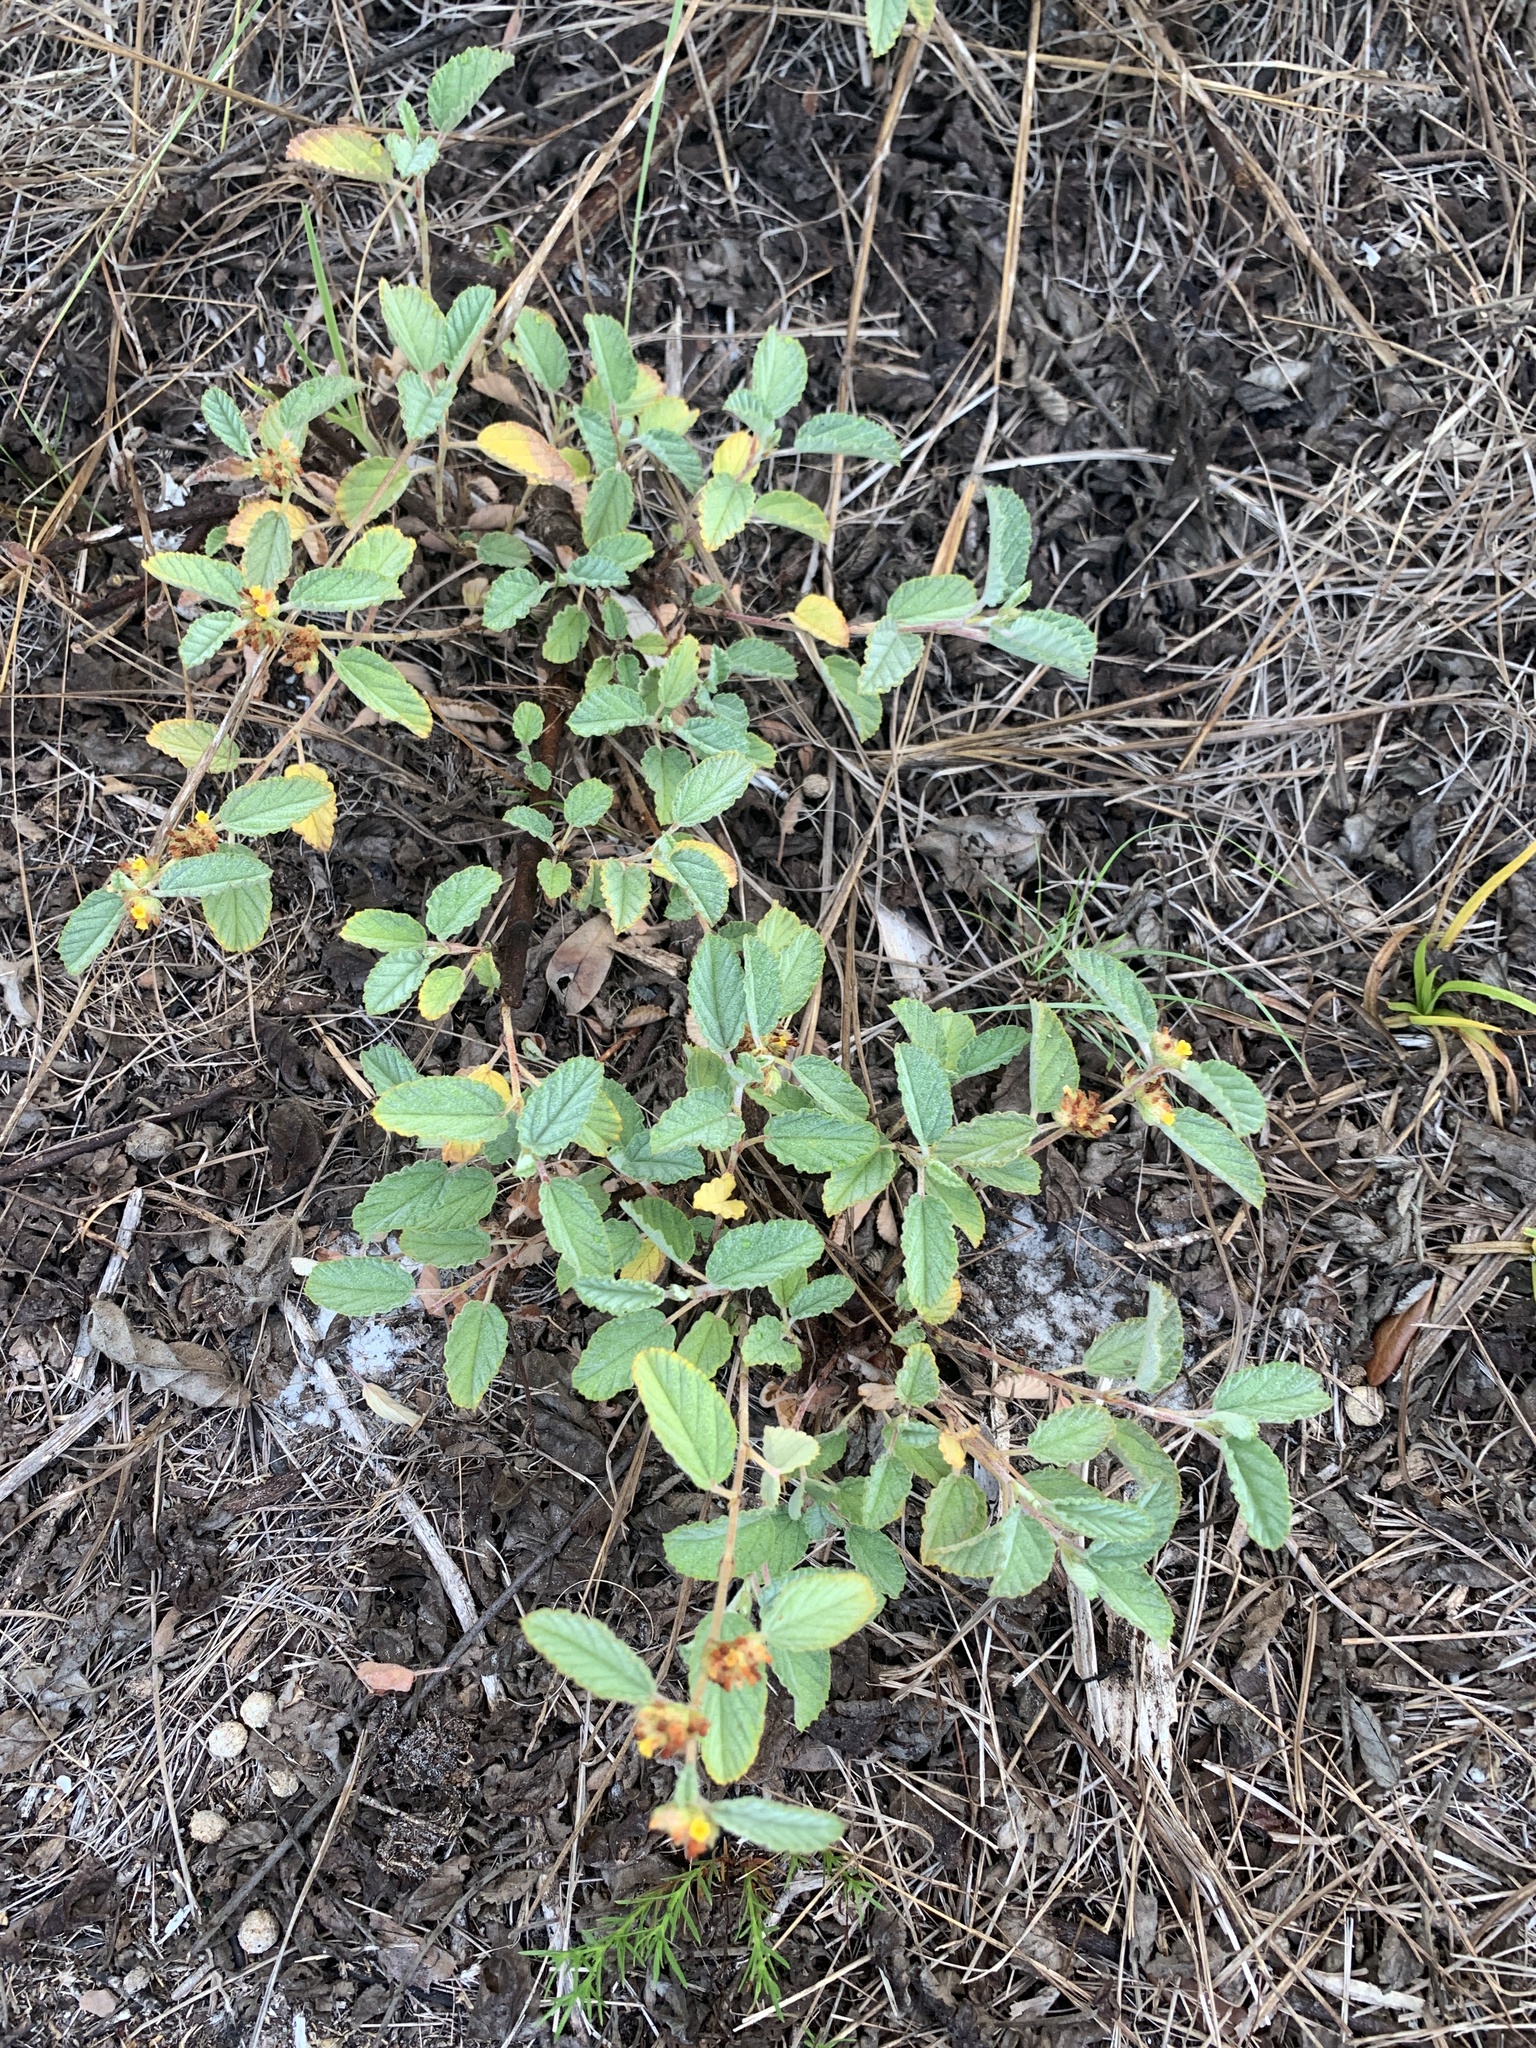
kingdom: Plantae
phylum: Tracheophyta
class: Magnoliopsida
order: Malvales
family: Malvaceae
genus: Waltheria
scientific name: Waltheria indica
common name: Leather-coat
